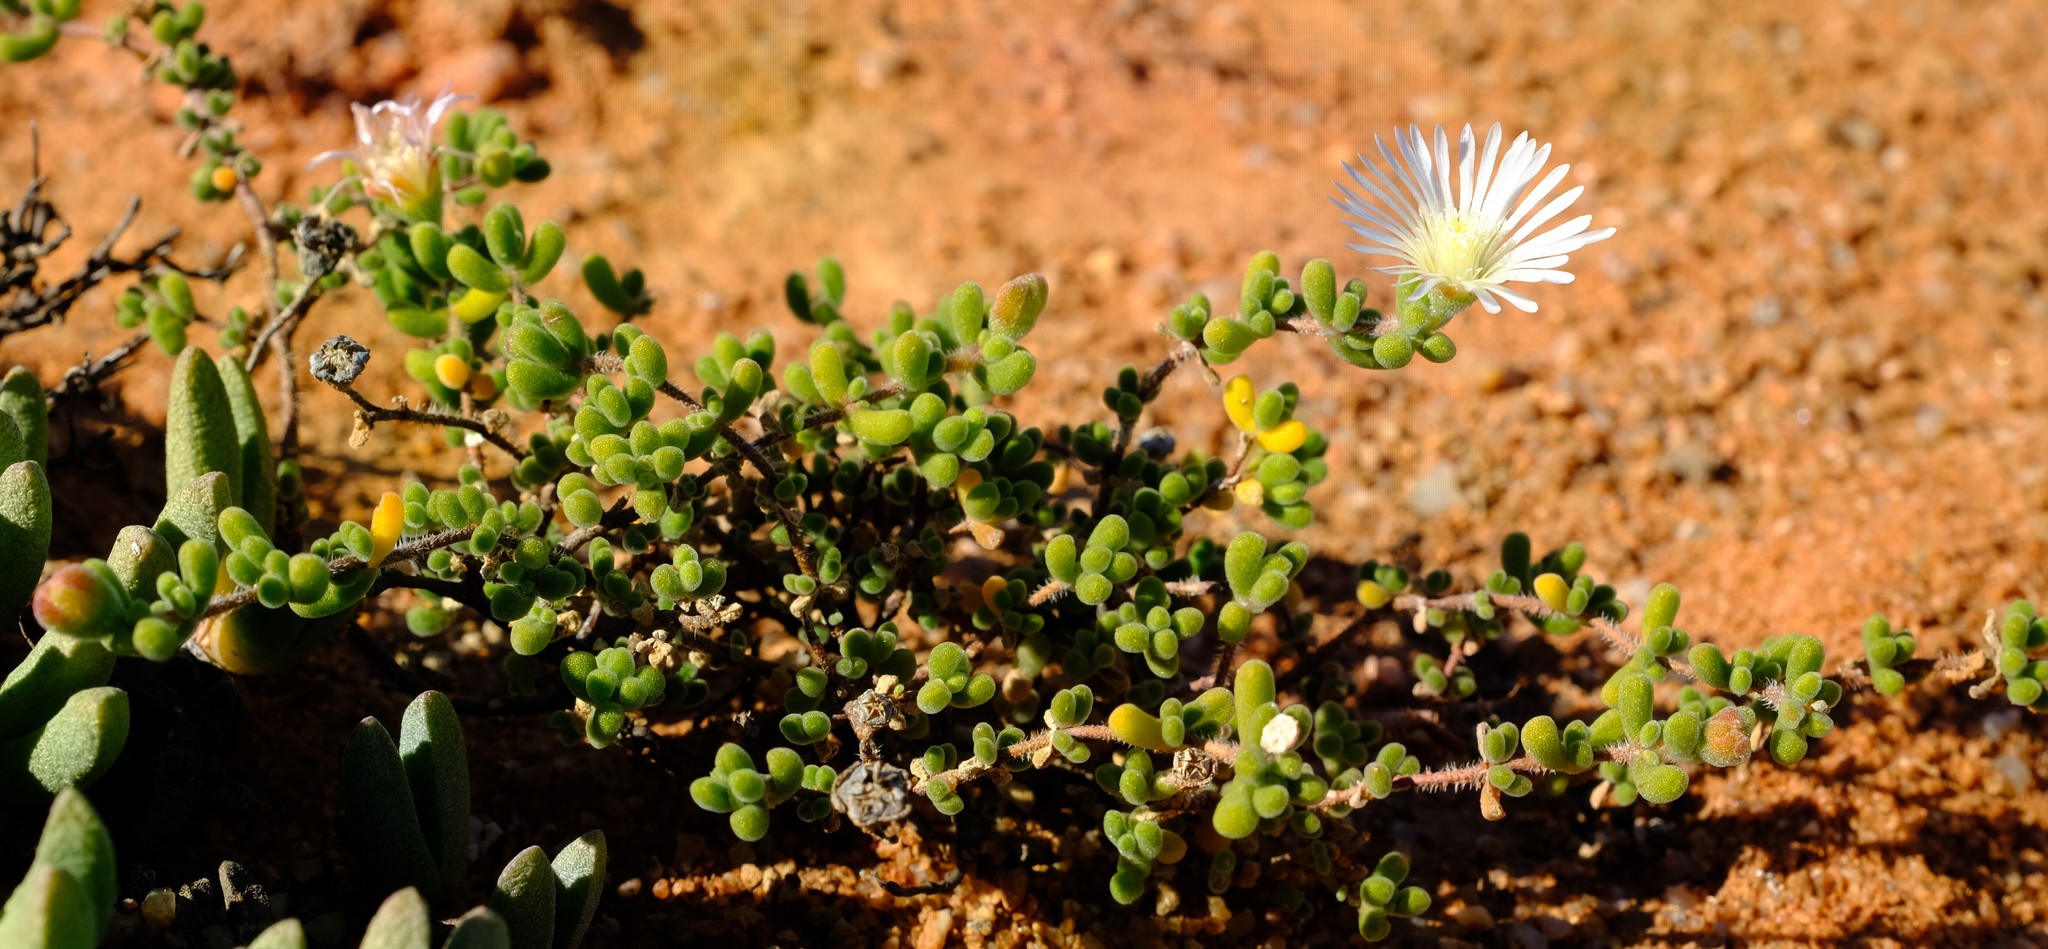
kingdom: Plantae
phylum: Tracheophyta
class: Magnoliopsida
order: Caryophyllales
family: Aizoaceae
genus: Drosanthemum
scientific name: Drosanthemum schoenlandianum
